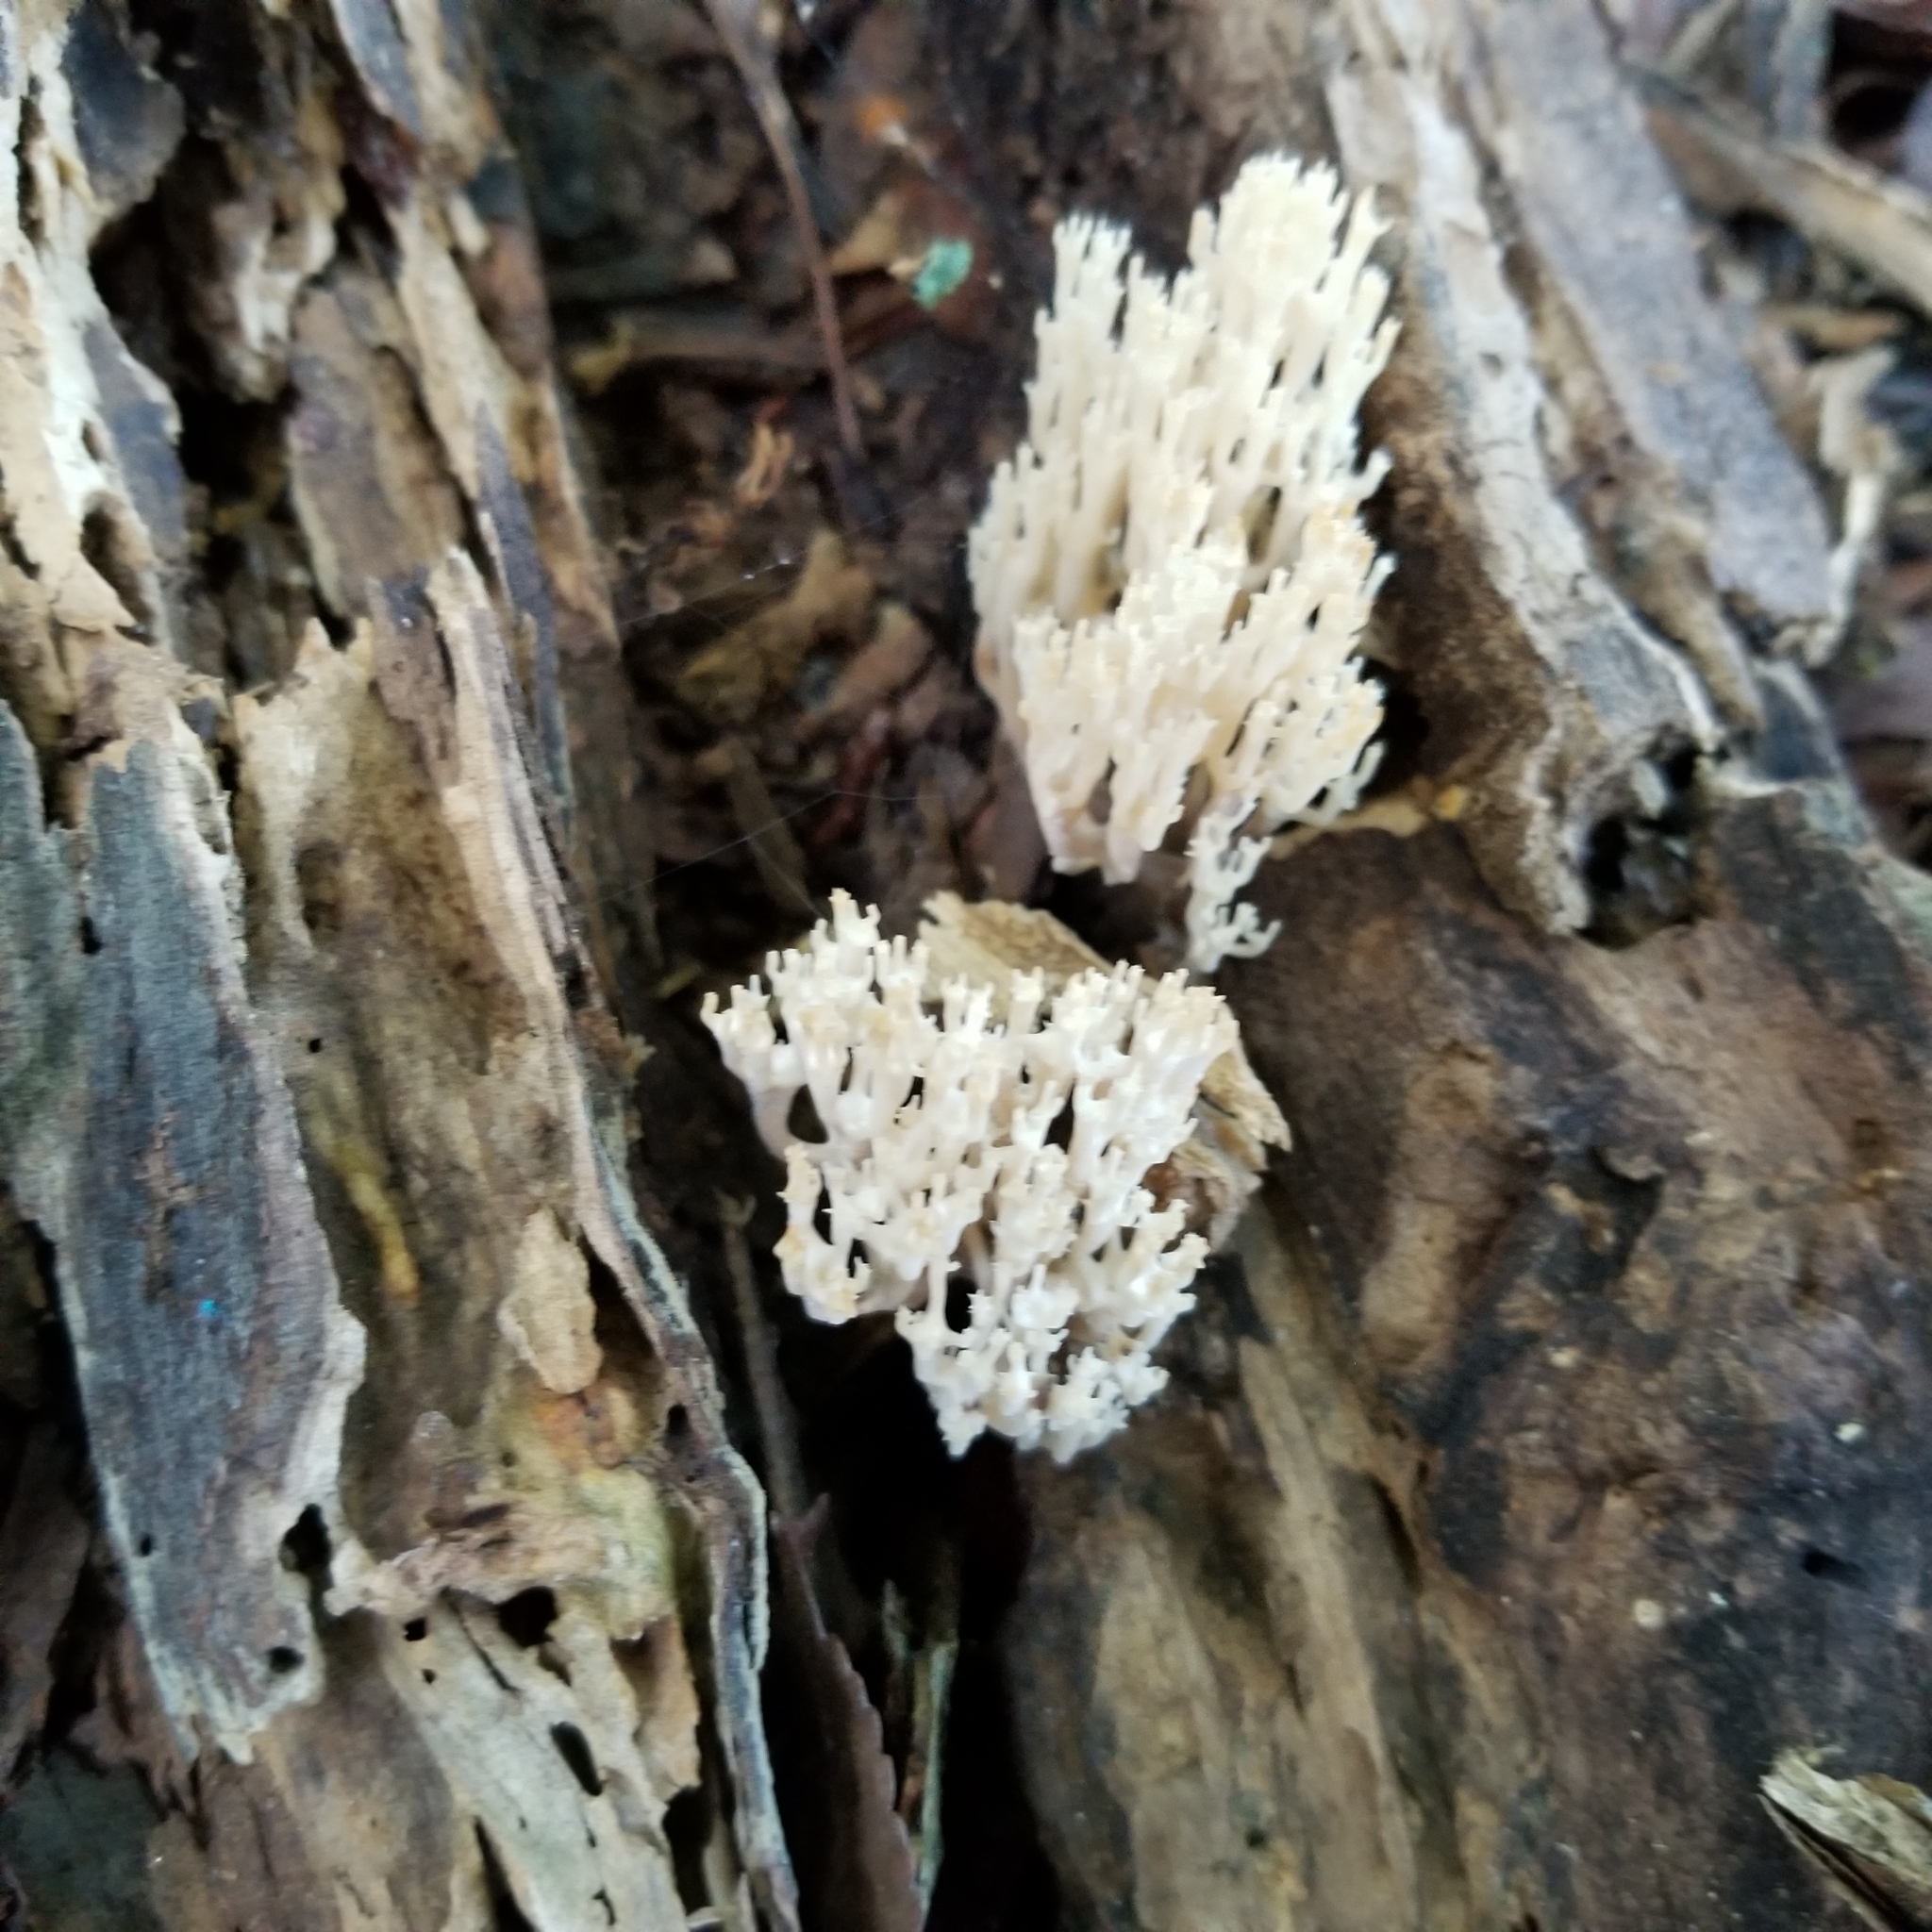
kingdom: Fungi
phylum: Basidiomycota
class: Agaricomycetes
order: Russulales
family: Auriscalpiaceae
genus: Artomyces
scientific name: Artomyces pyxidatus
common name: Crown-tipped coral fungus
